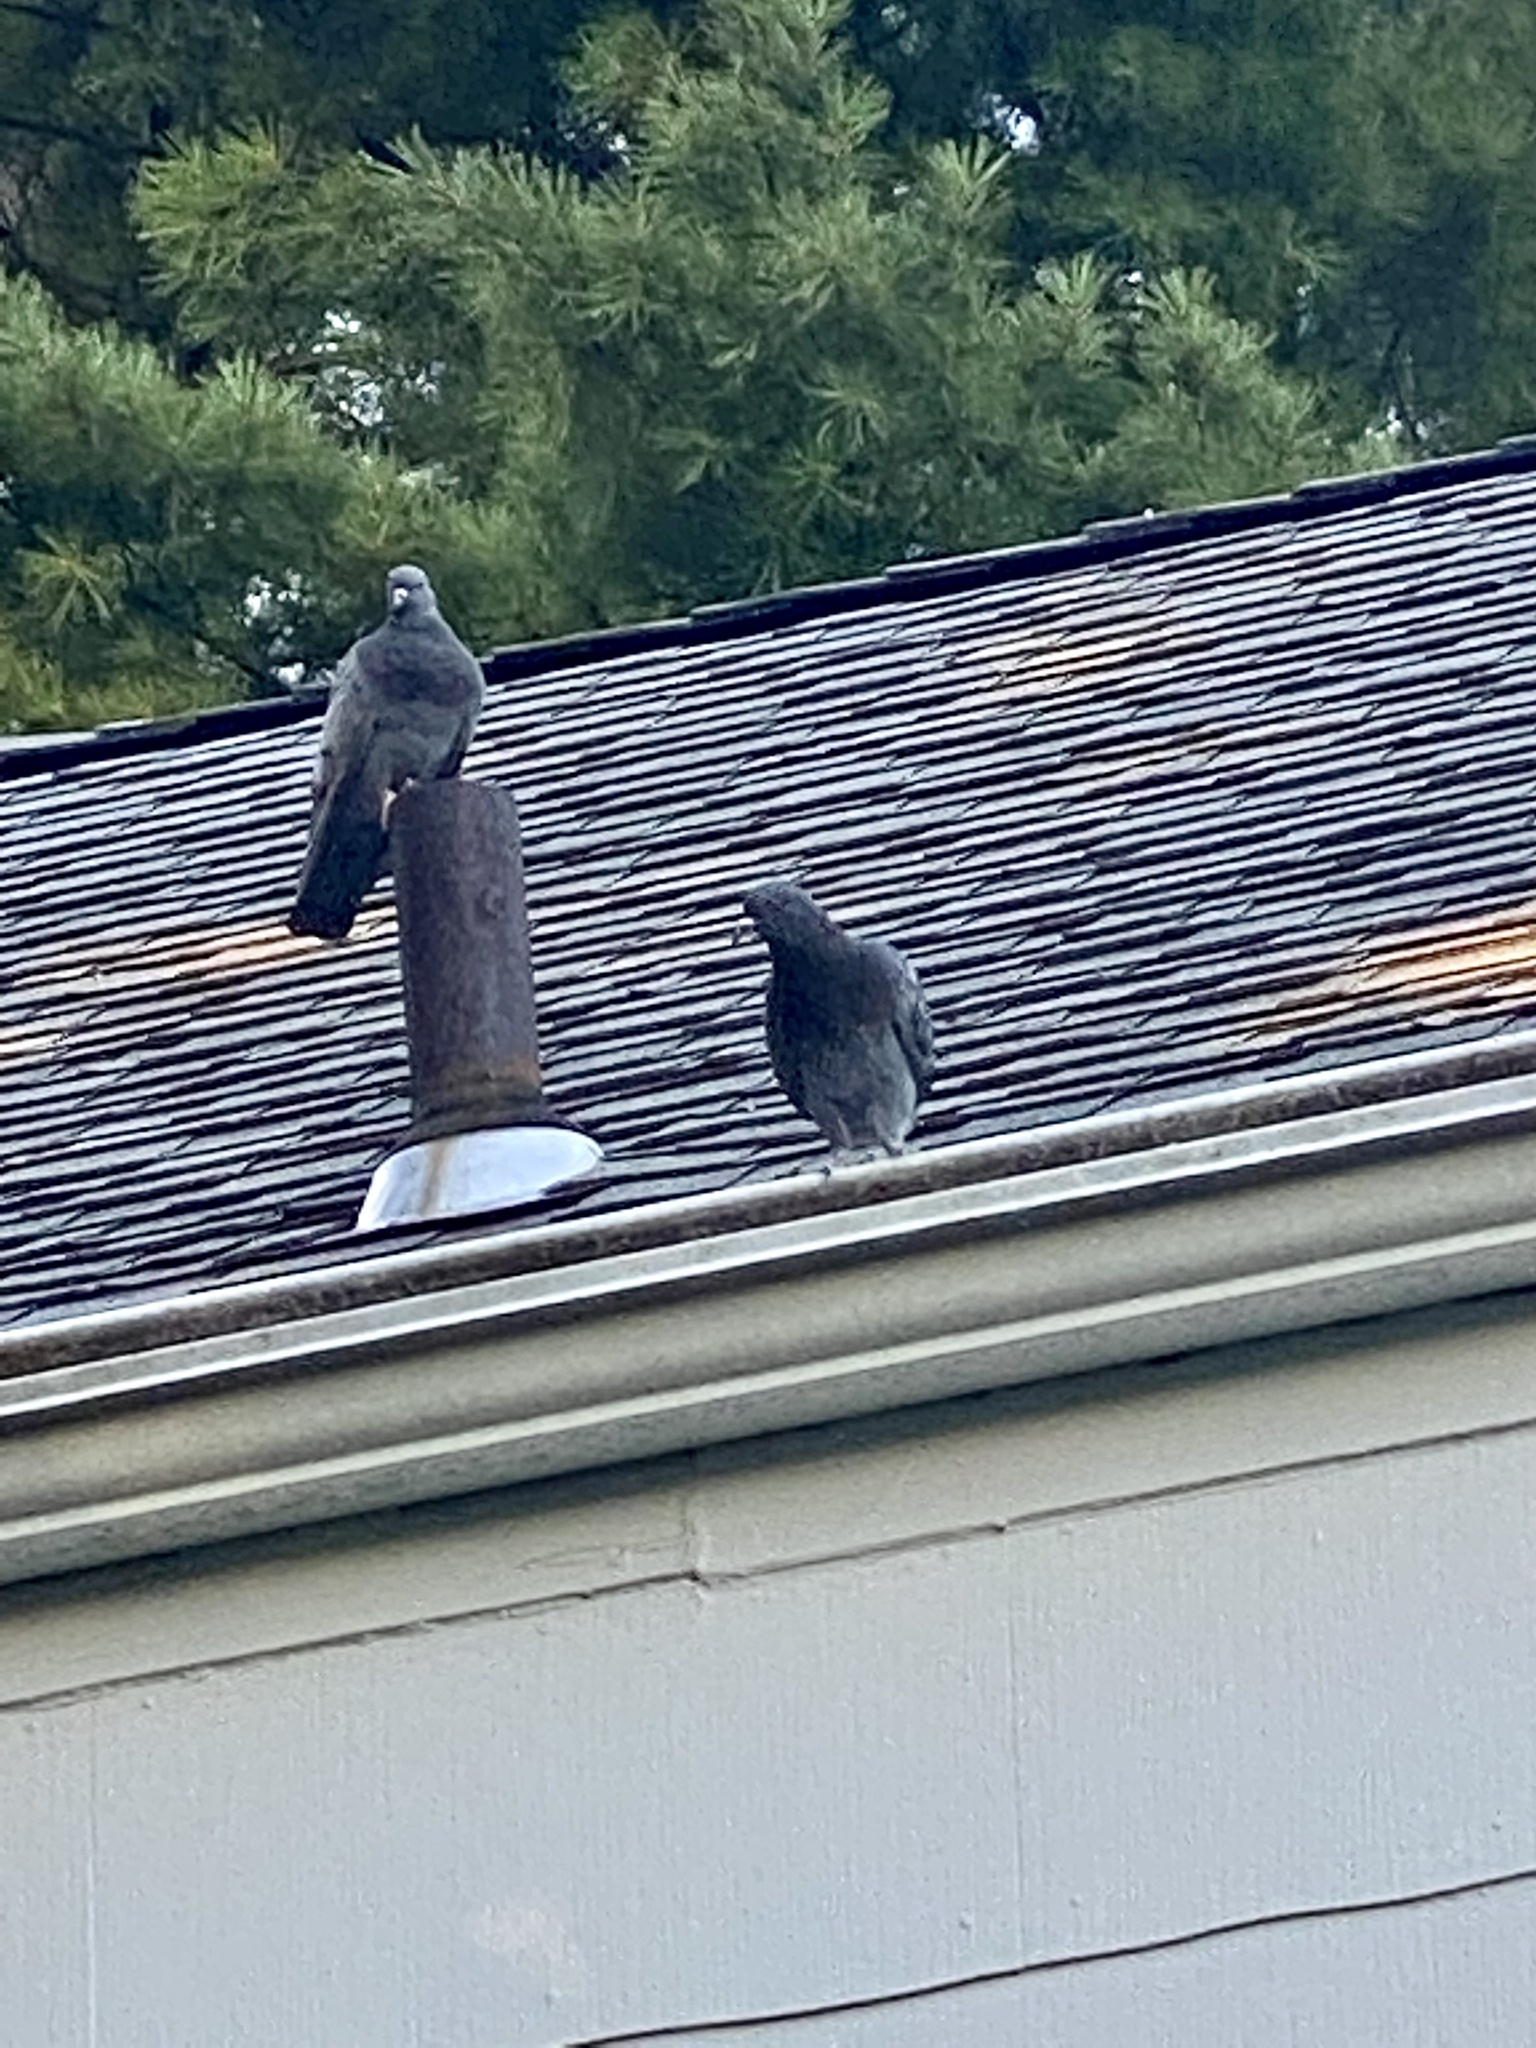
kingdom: Animalia
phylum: Chordata
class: Aves
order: Columbiformes
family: Columbidae
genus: Columba
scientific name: Columba livia
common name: Rock pigeon
